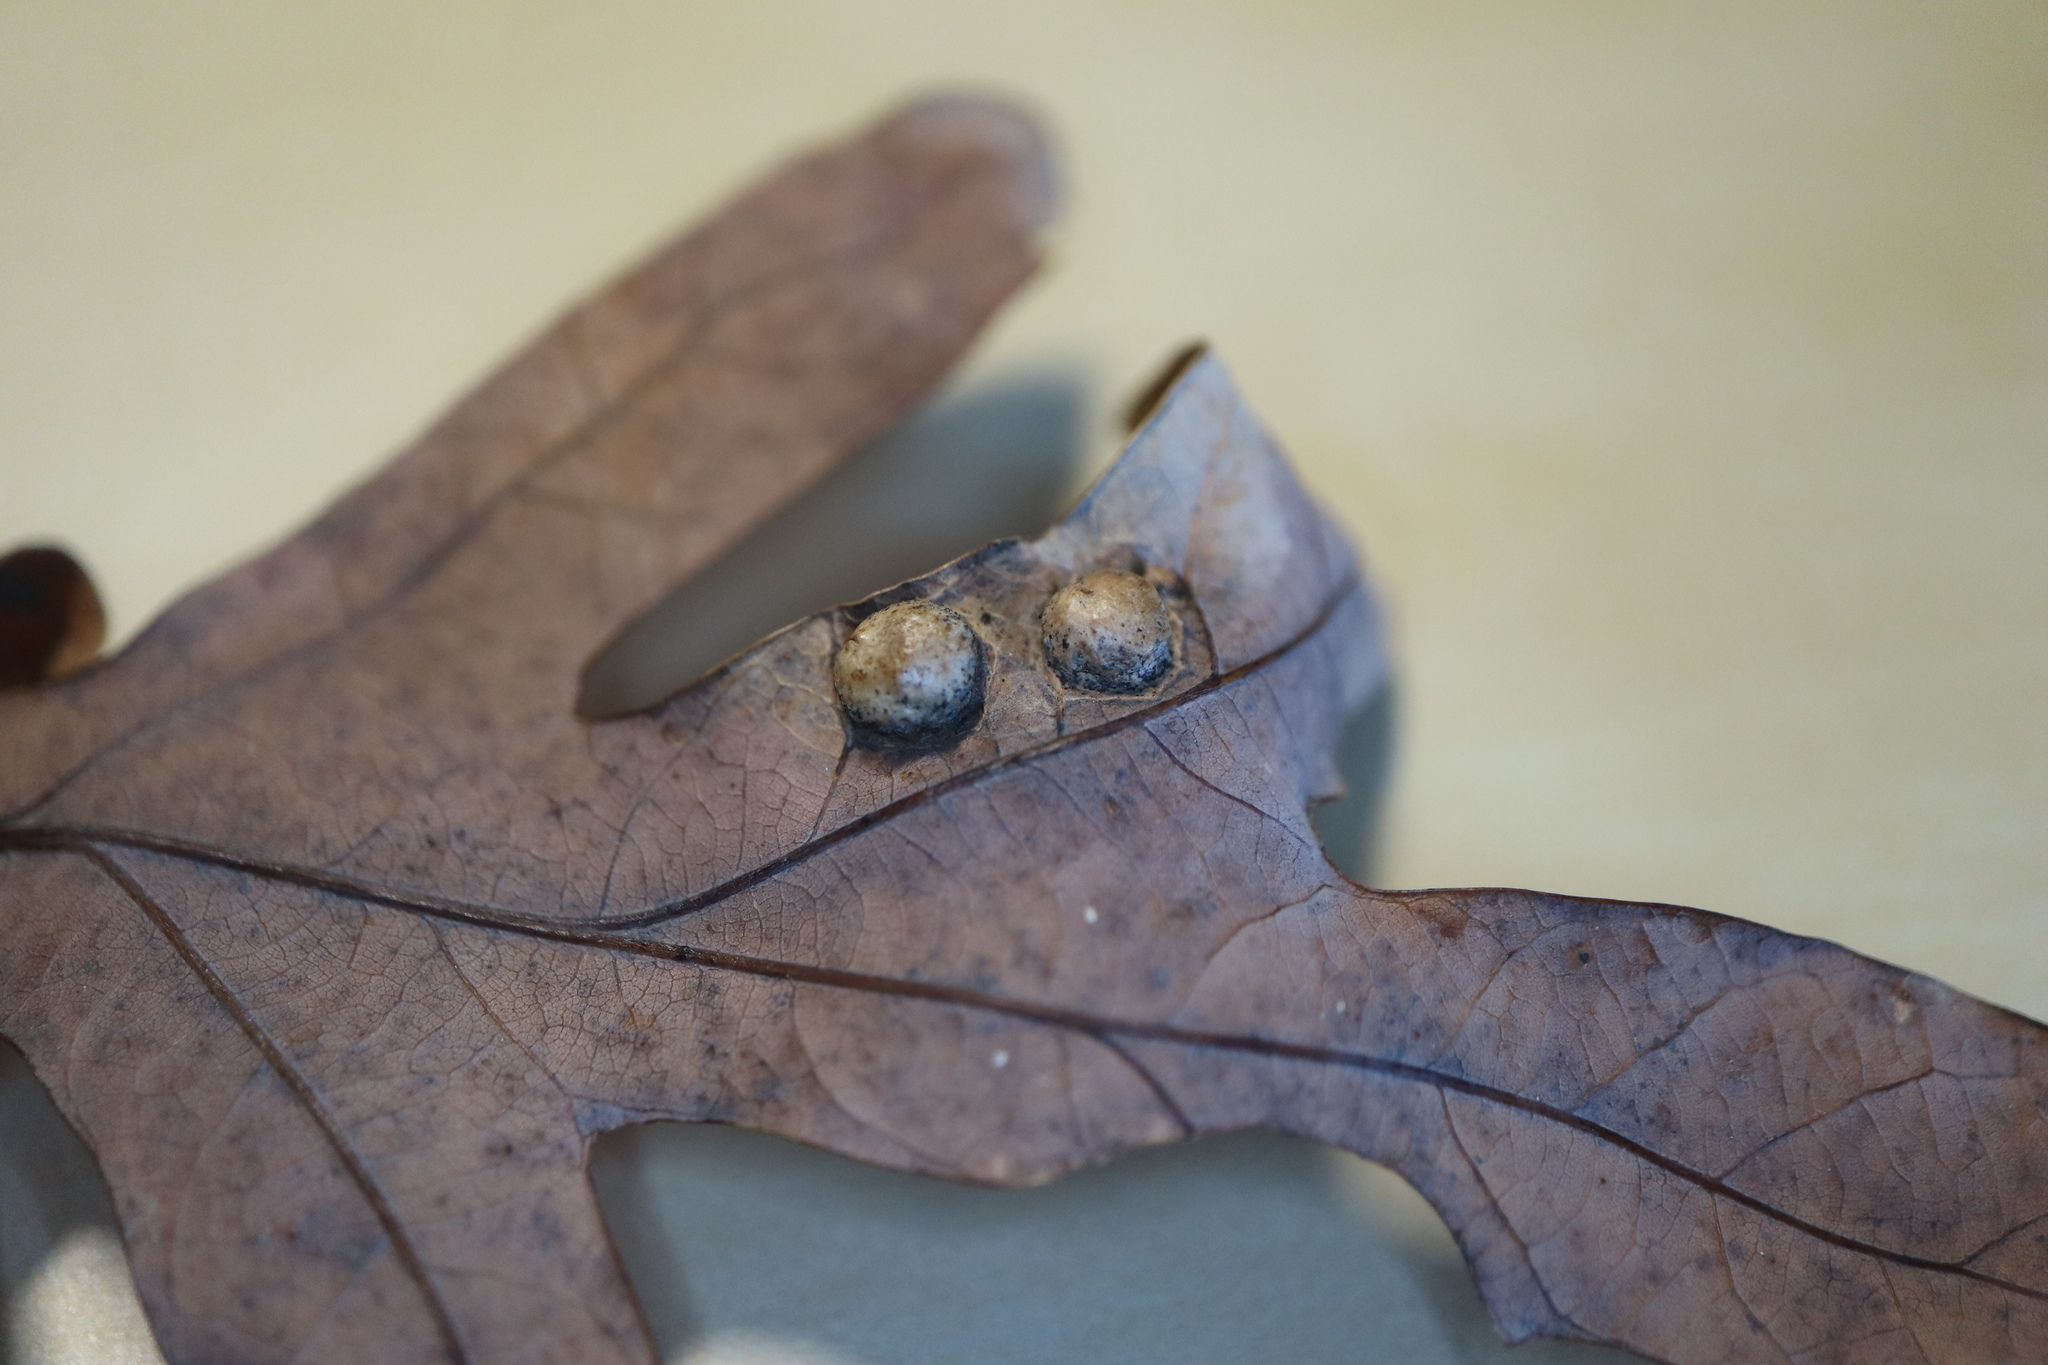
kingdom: Animalia
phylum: Arthropoda
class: Insecta
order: Hymenoptera
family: Cynipidae
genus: Callirhytis
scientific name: Callirhytis
